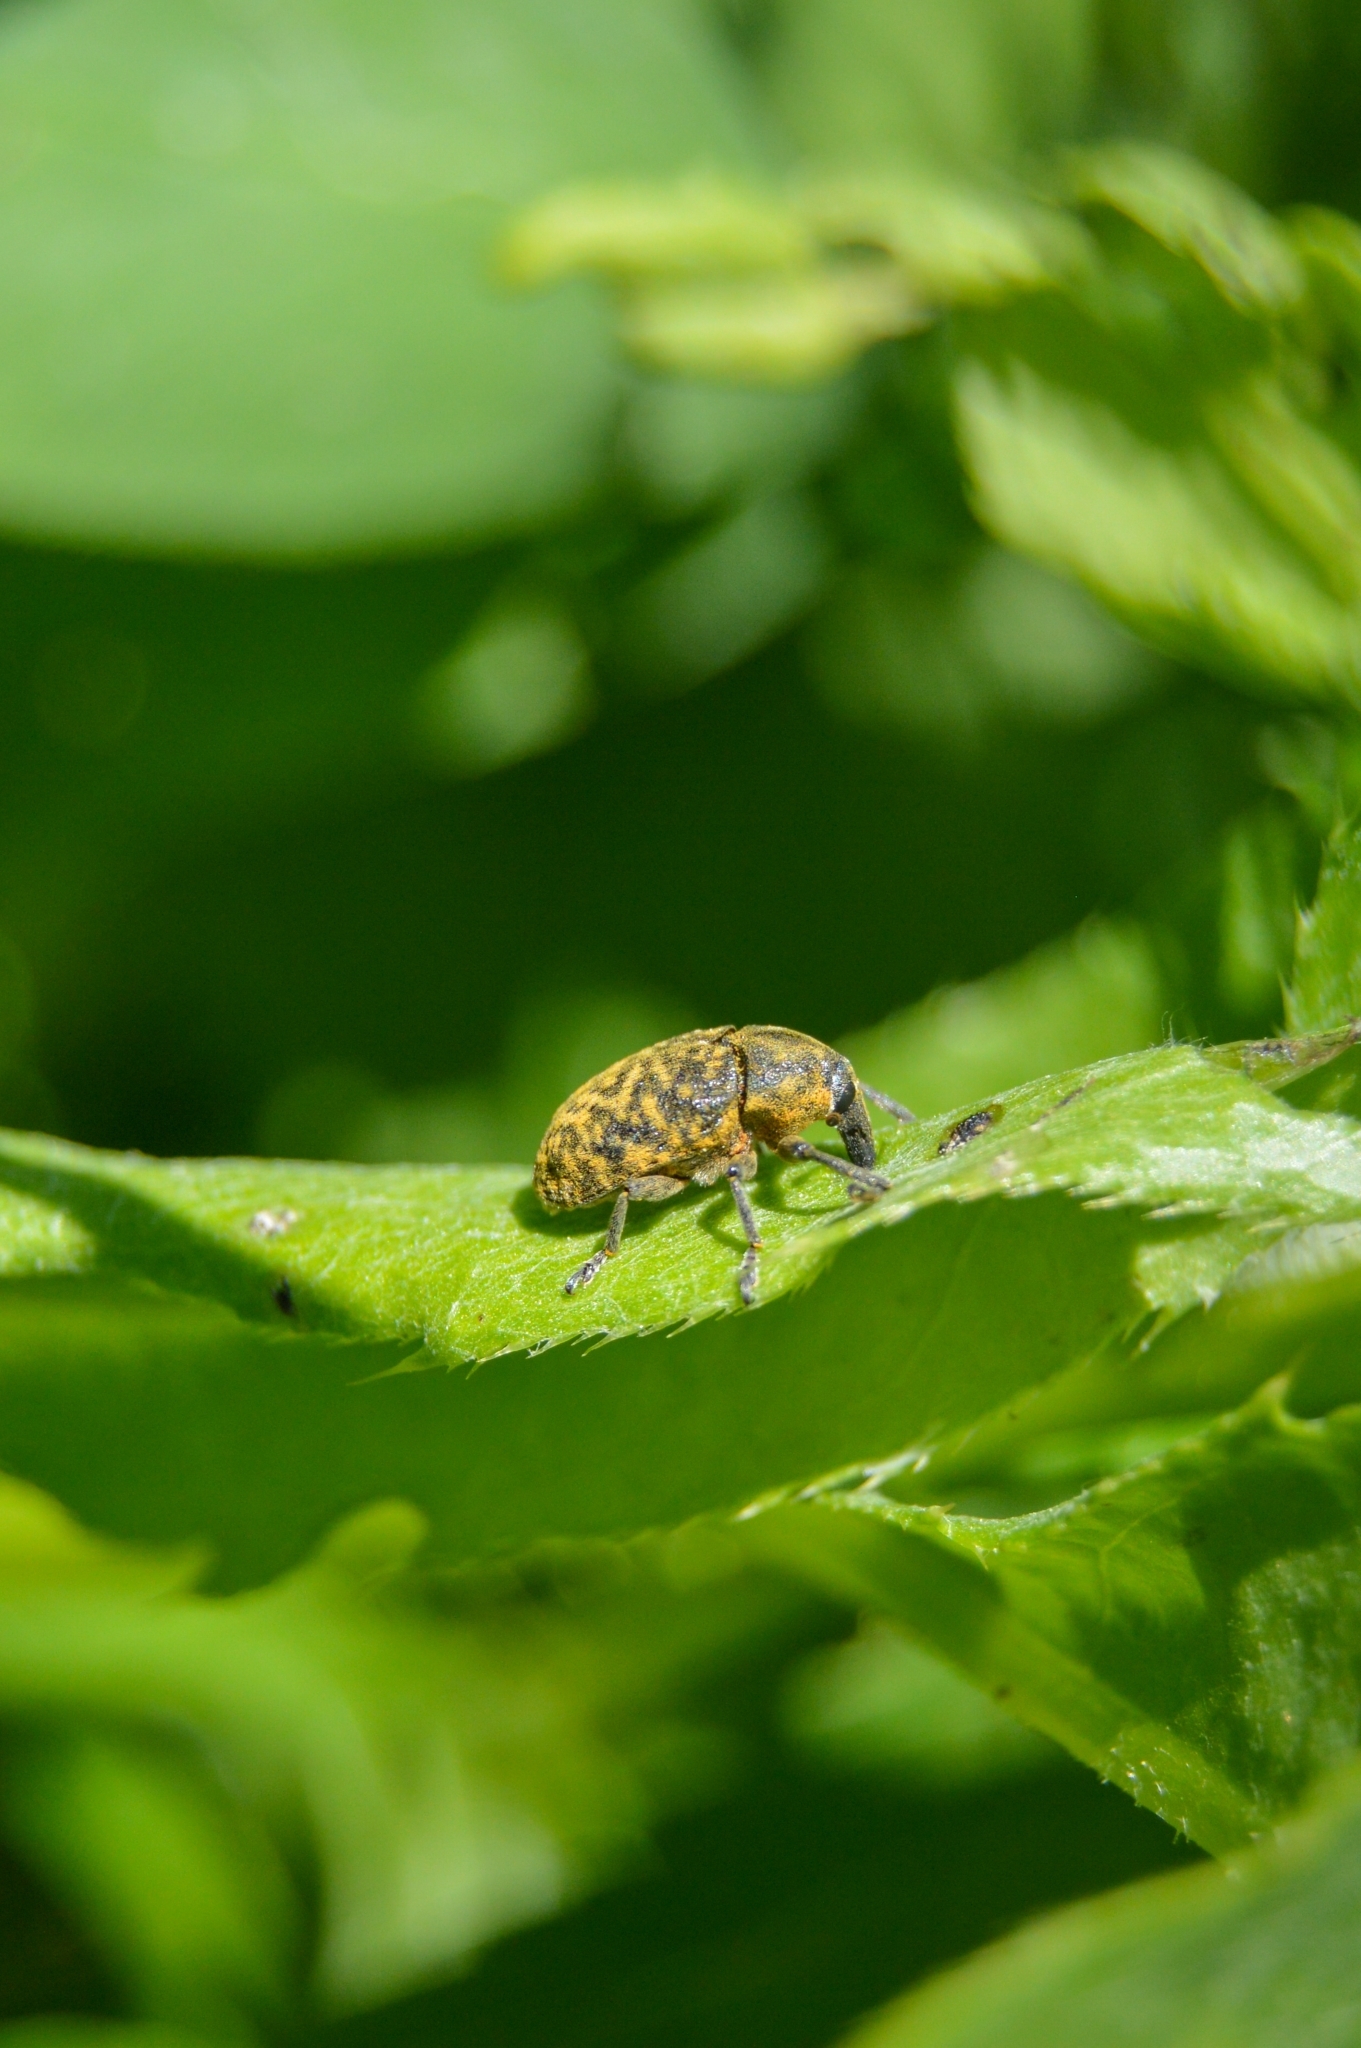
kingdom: Animalia
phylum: Arthropoda
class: Insecta
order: Coleoptera
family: Curculionidae
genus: Larinus
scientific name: Larinus turbinatus
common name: Weevil
